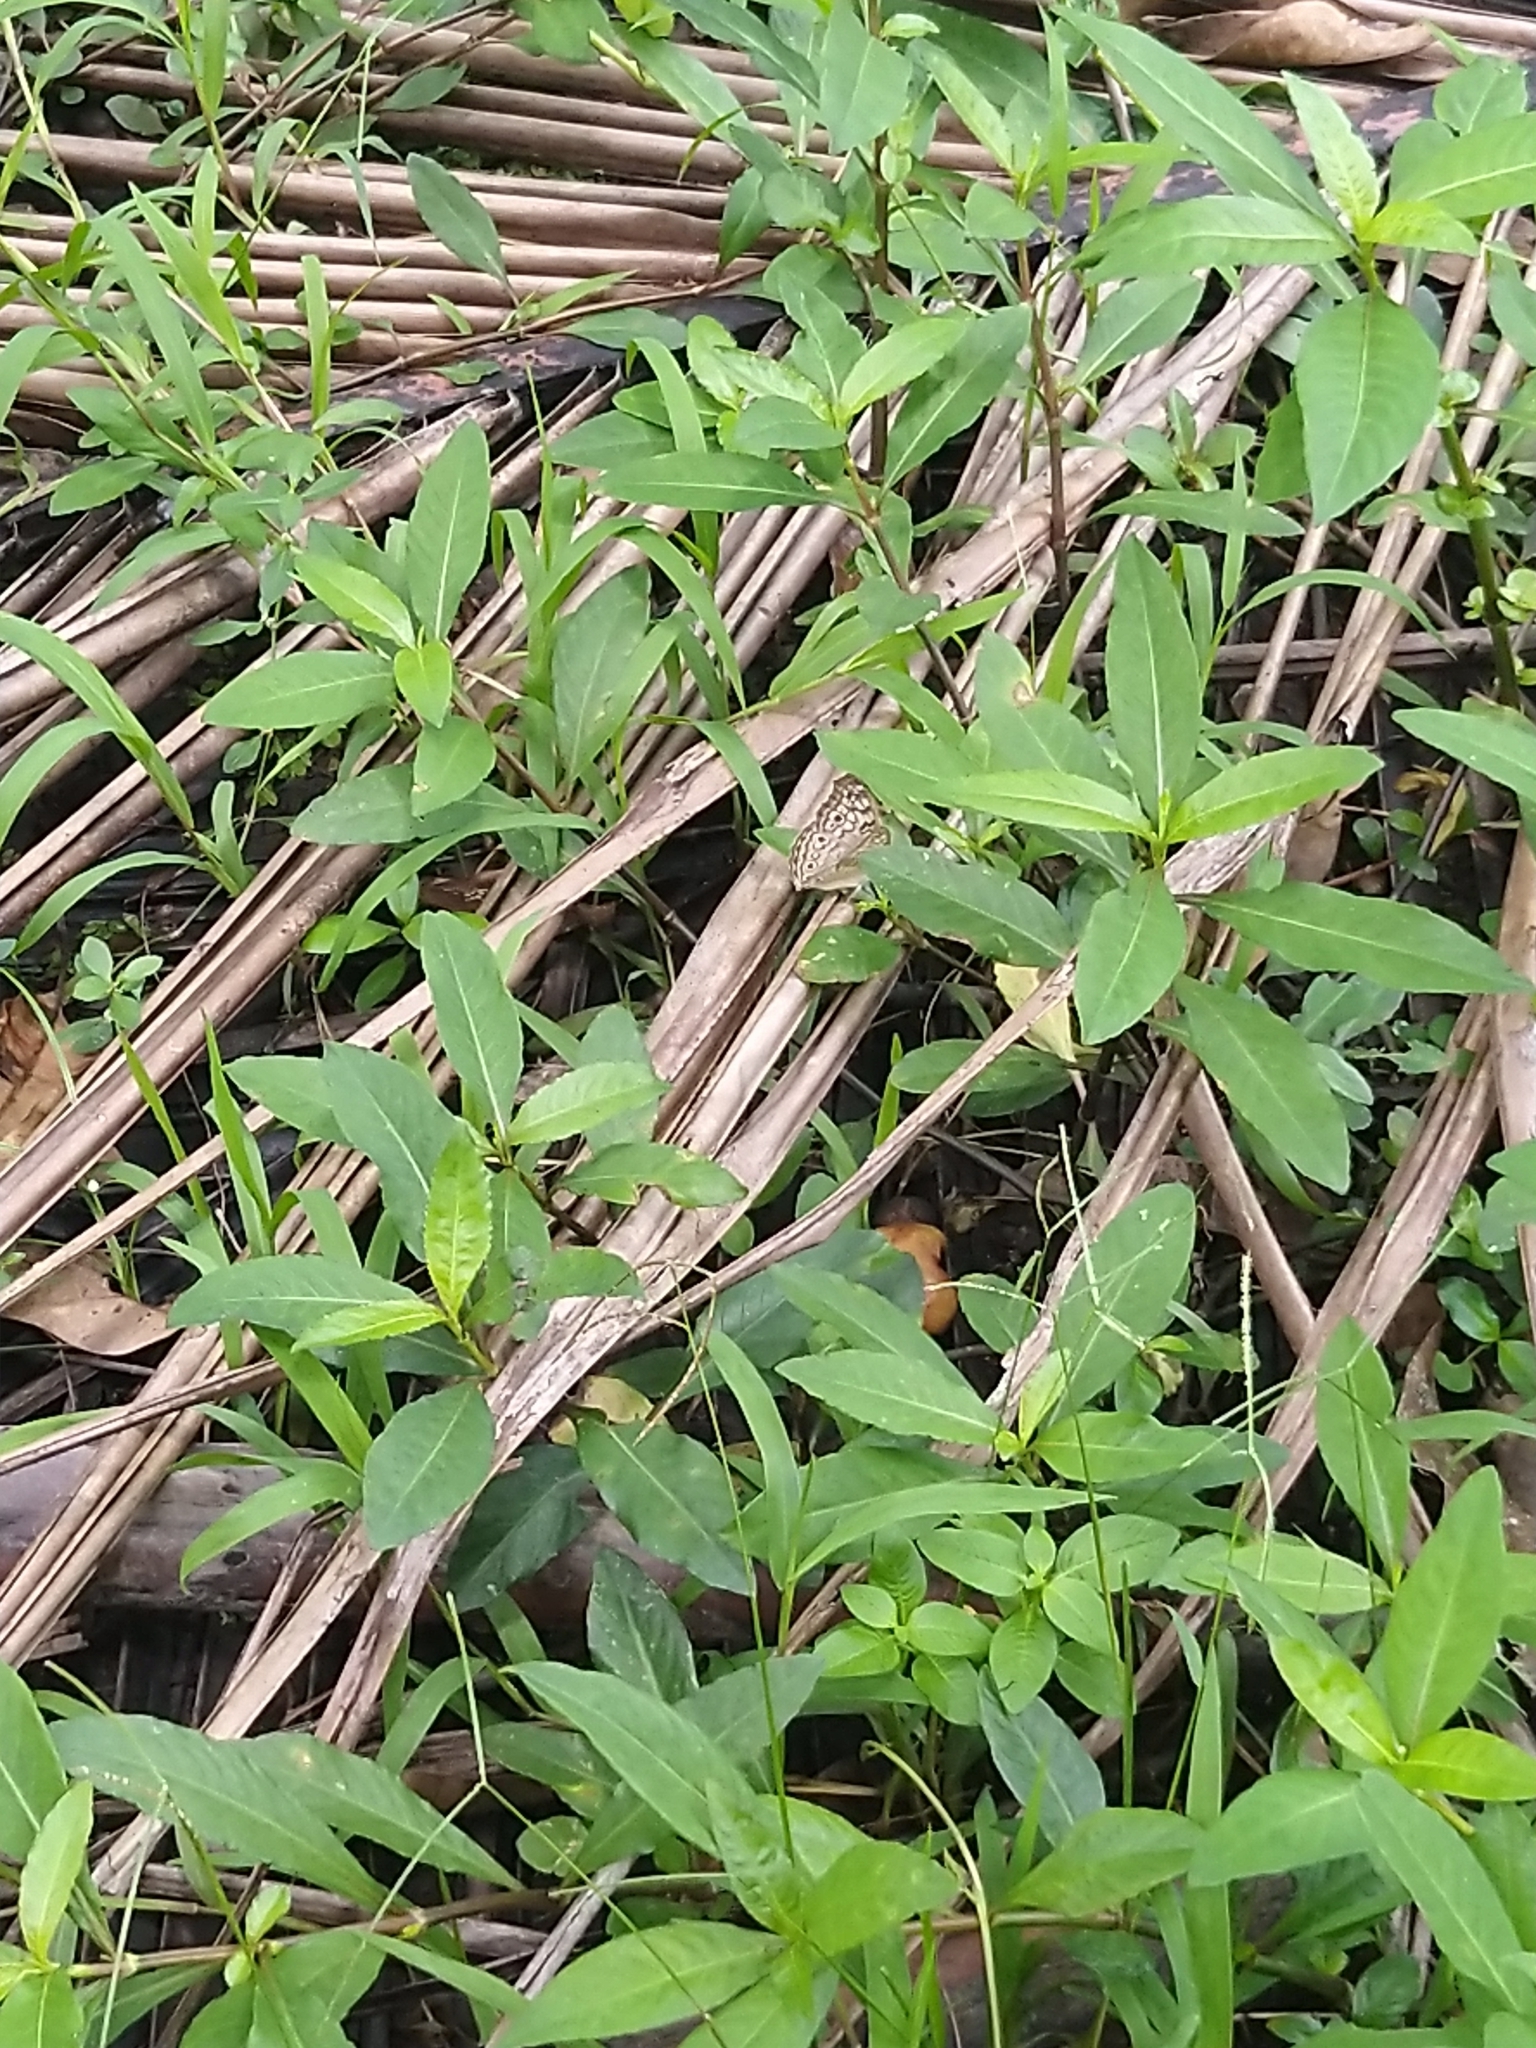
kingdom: Animalia
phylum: Arthropoda
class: Insecta
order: Lepidoptera
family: Nymphalidae
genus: Junonia
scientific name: Junonia atlites
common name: Grey pansy
